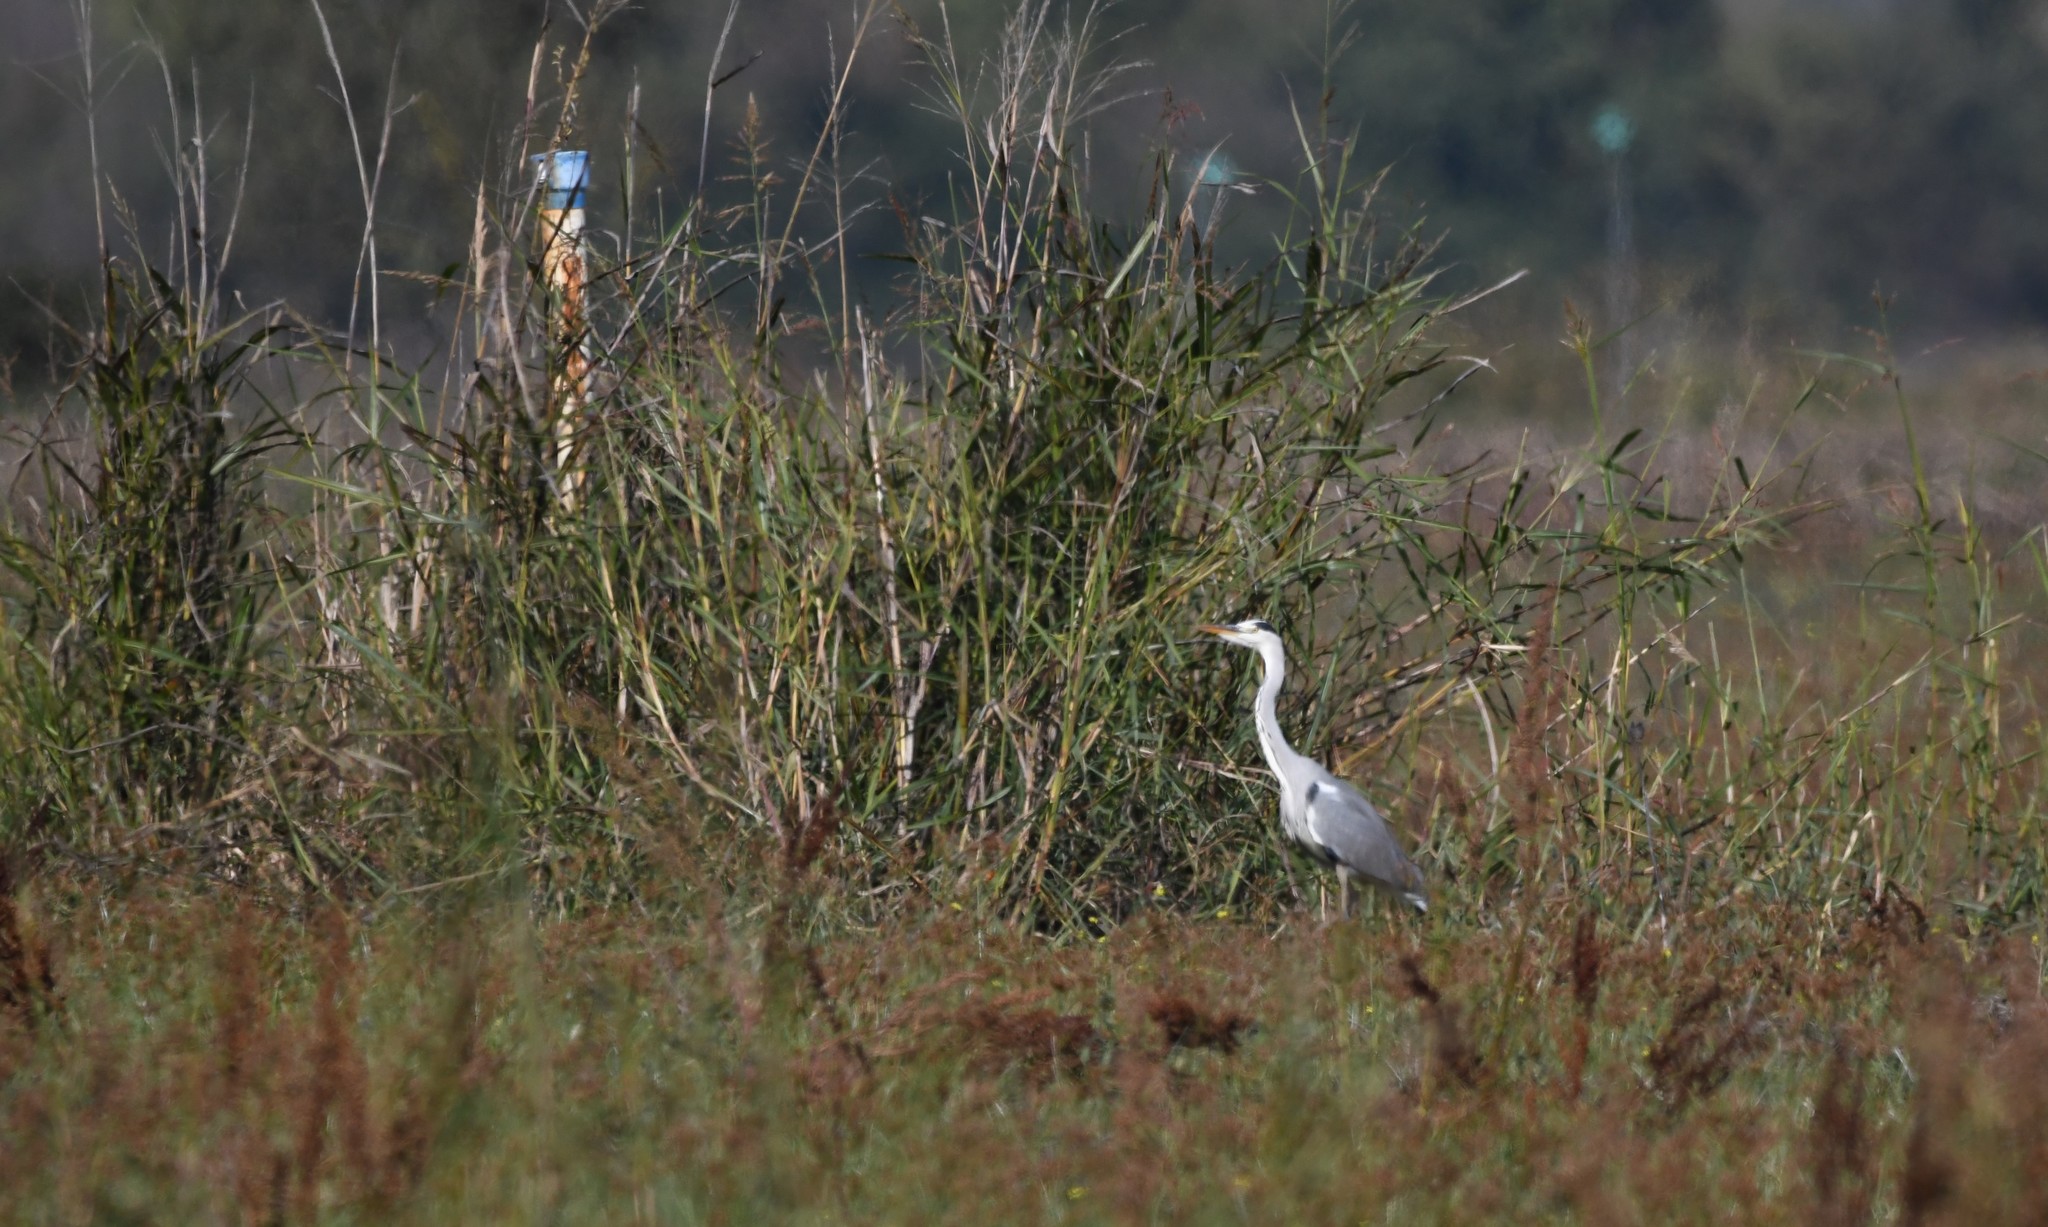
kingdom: Animalia
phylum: Chordata
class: Aves
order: Pelecaniformes
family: Ardeidae
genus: Ardea
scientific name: Ardea cinerea
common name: Grey heron
